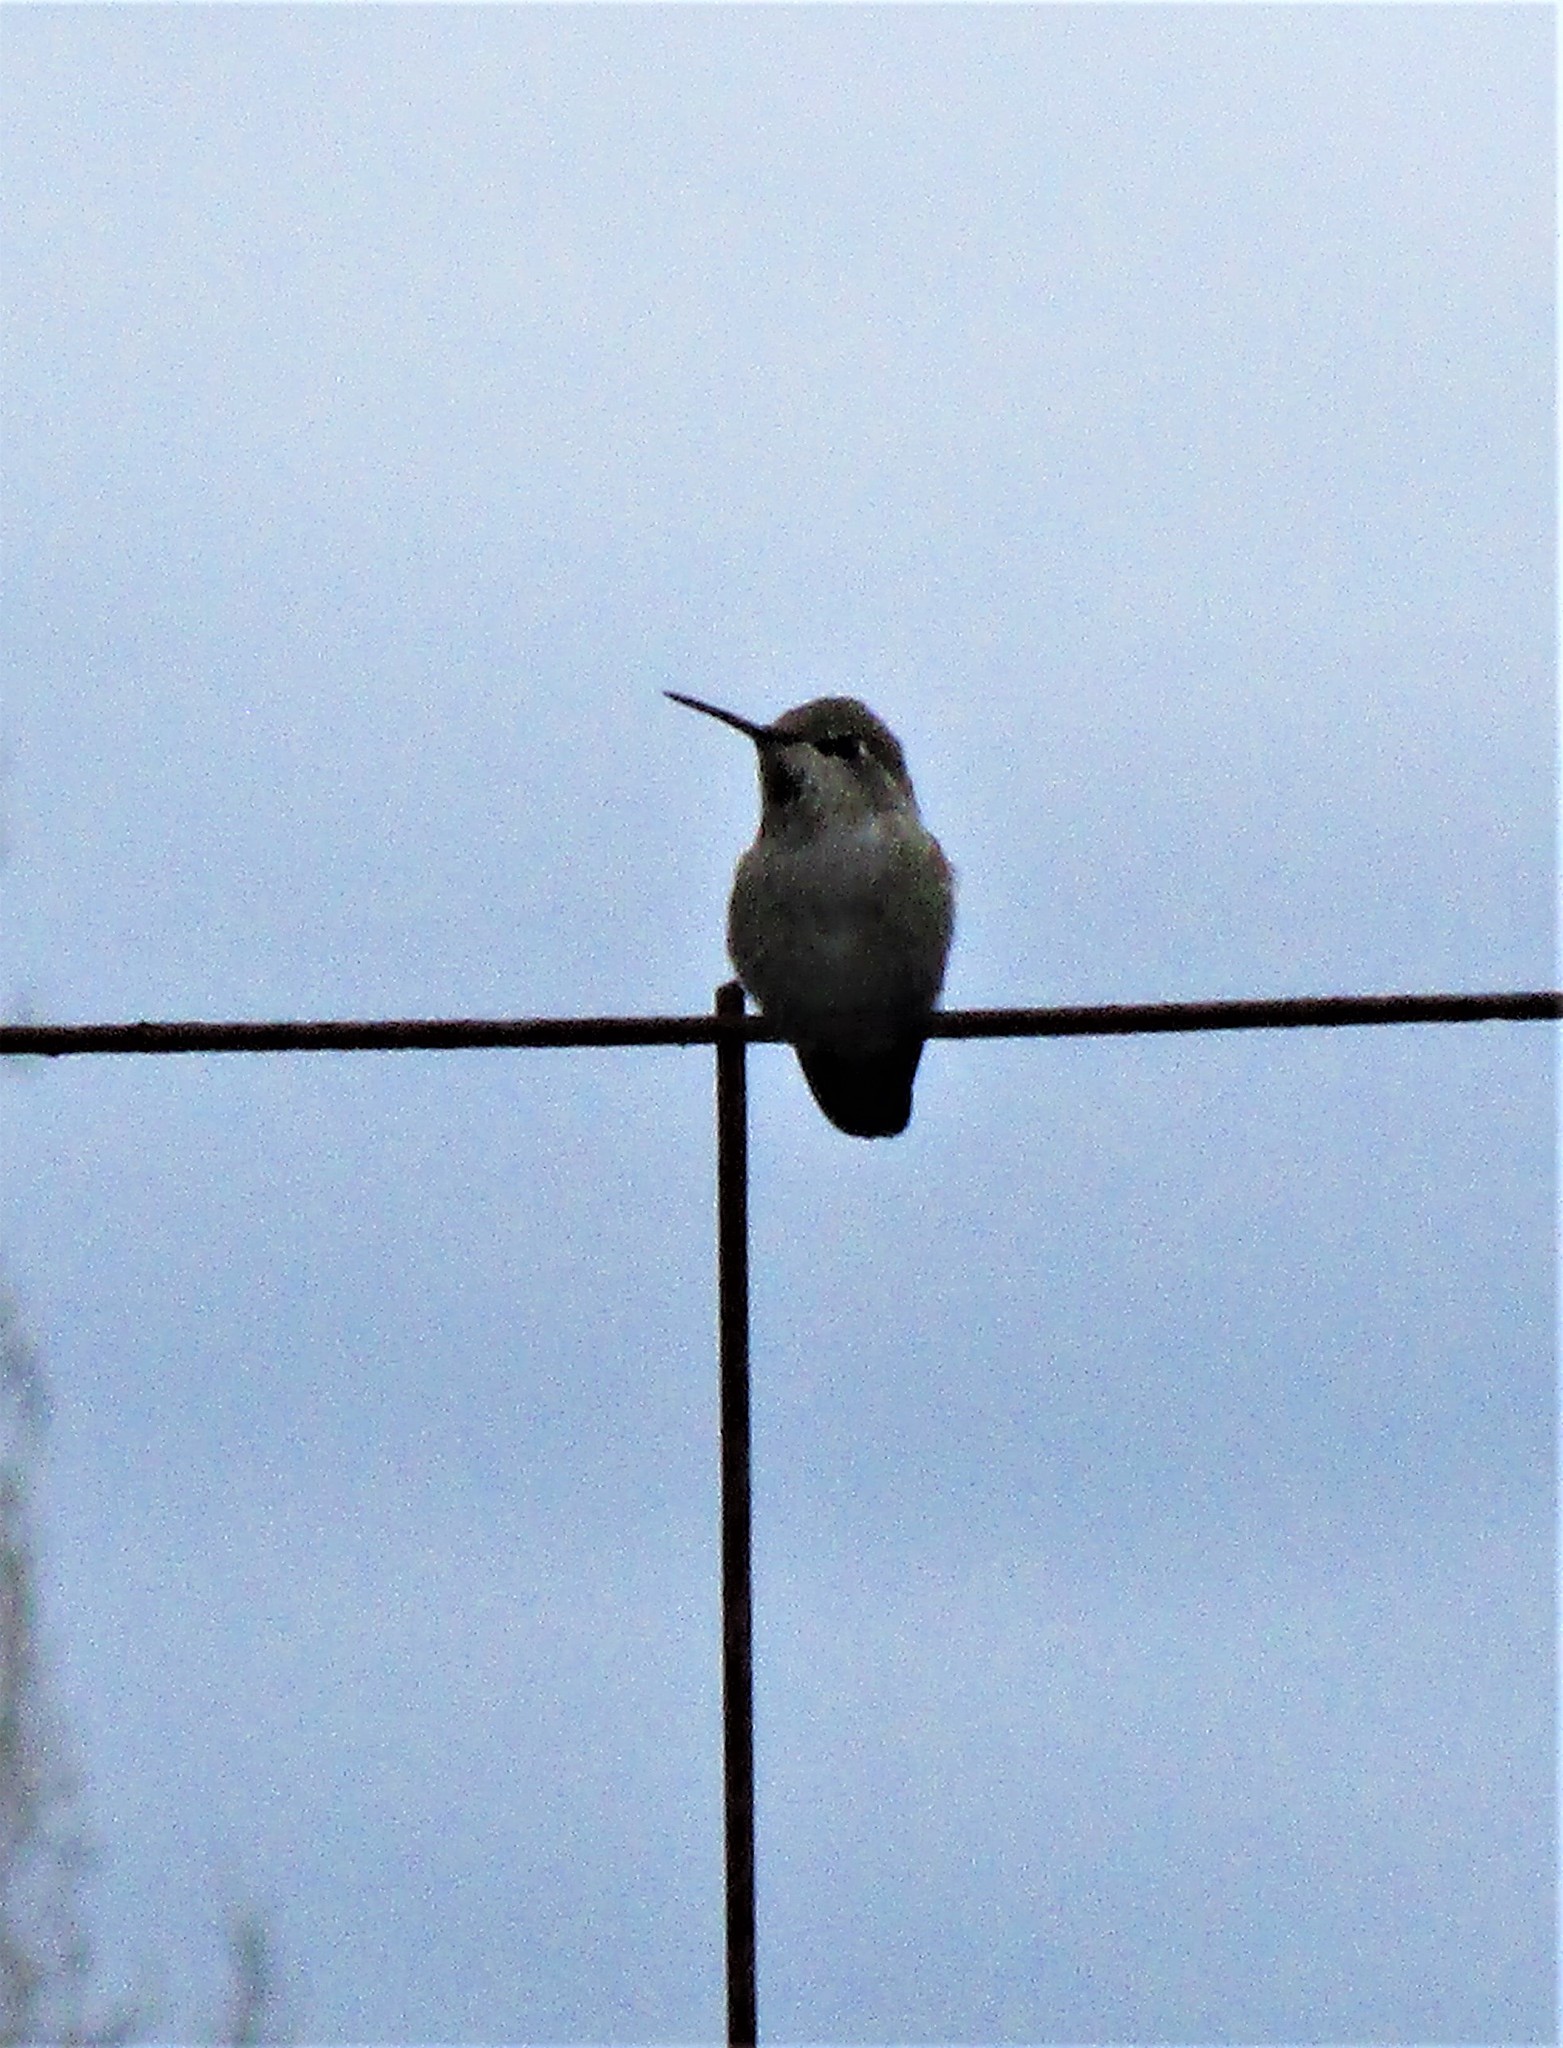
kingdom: Animalia
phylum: Chordata
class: Aves
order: Apodiformes
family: Trochilidae
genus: Calypte
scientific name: Calypte anna
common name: Anna's hummingbird
